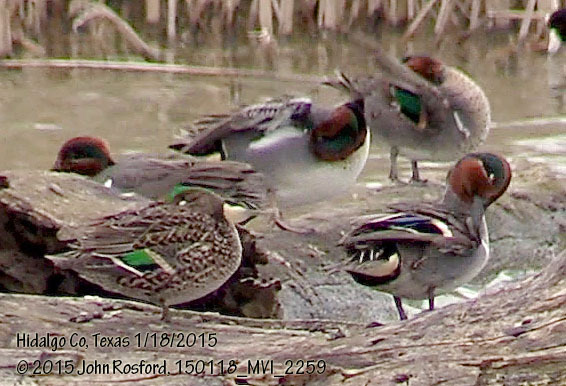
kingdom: Animalia
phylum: Chordata
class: Aves
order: Anseriformes
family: Anatidae
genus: Anas
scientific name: Anas crecca
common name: Eurasian teal
